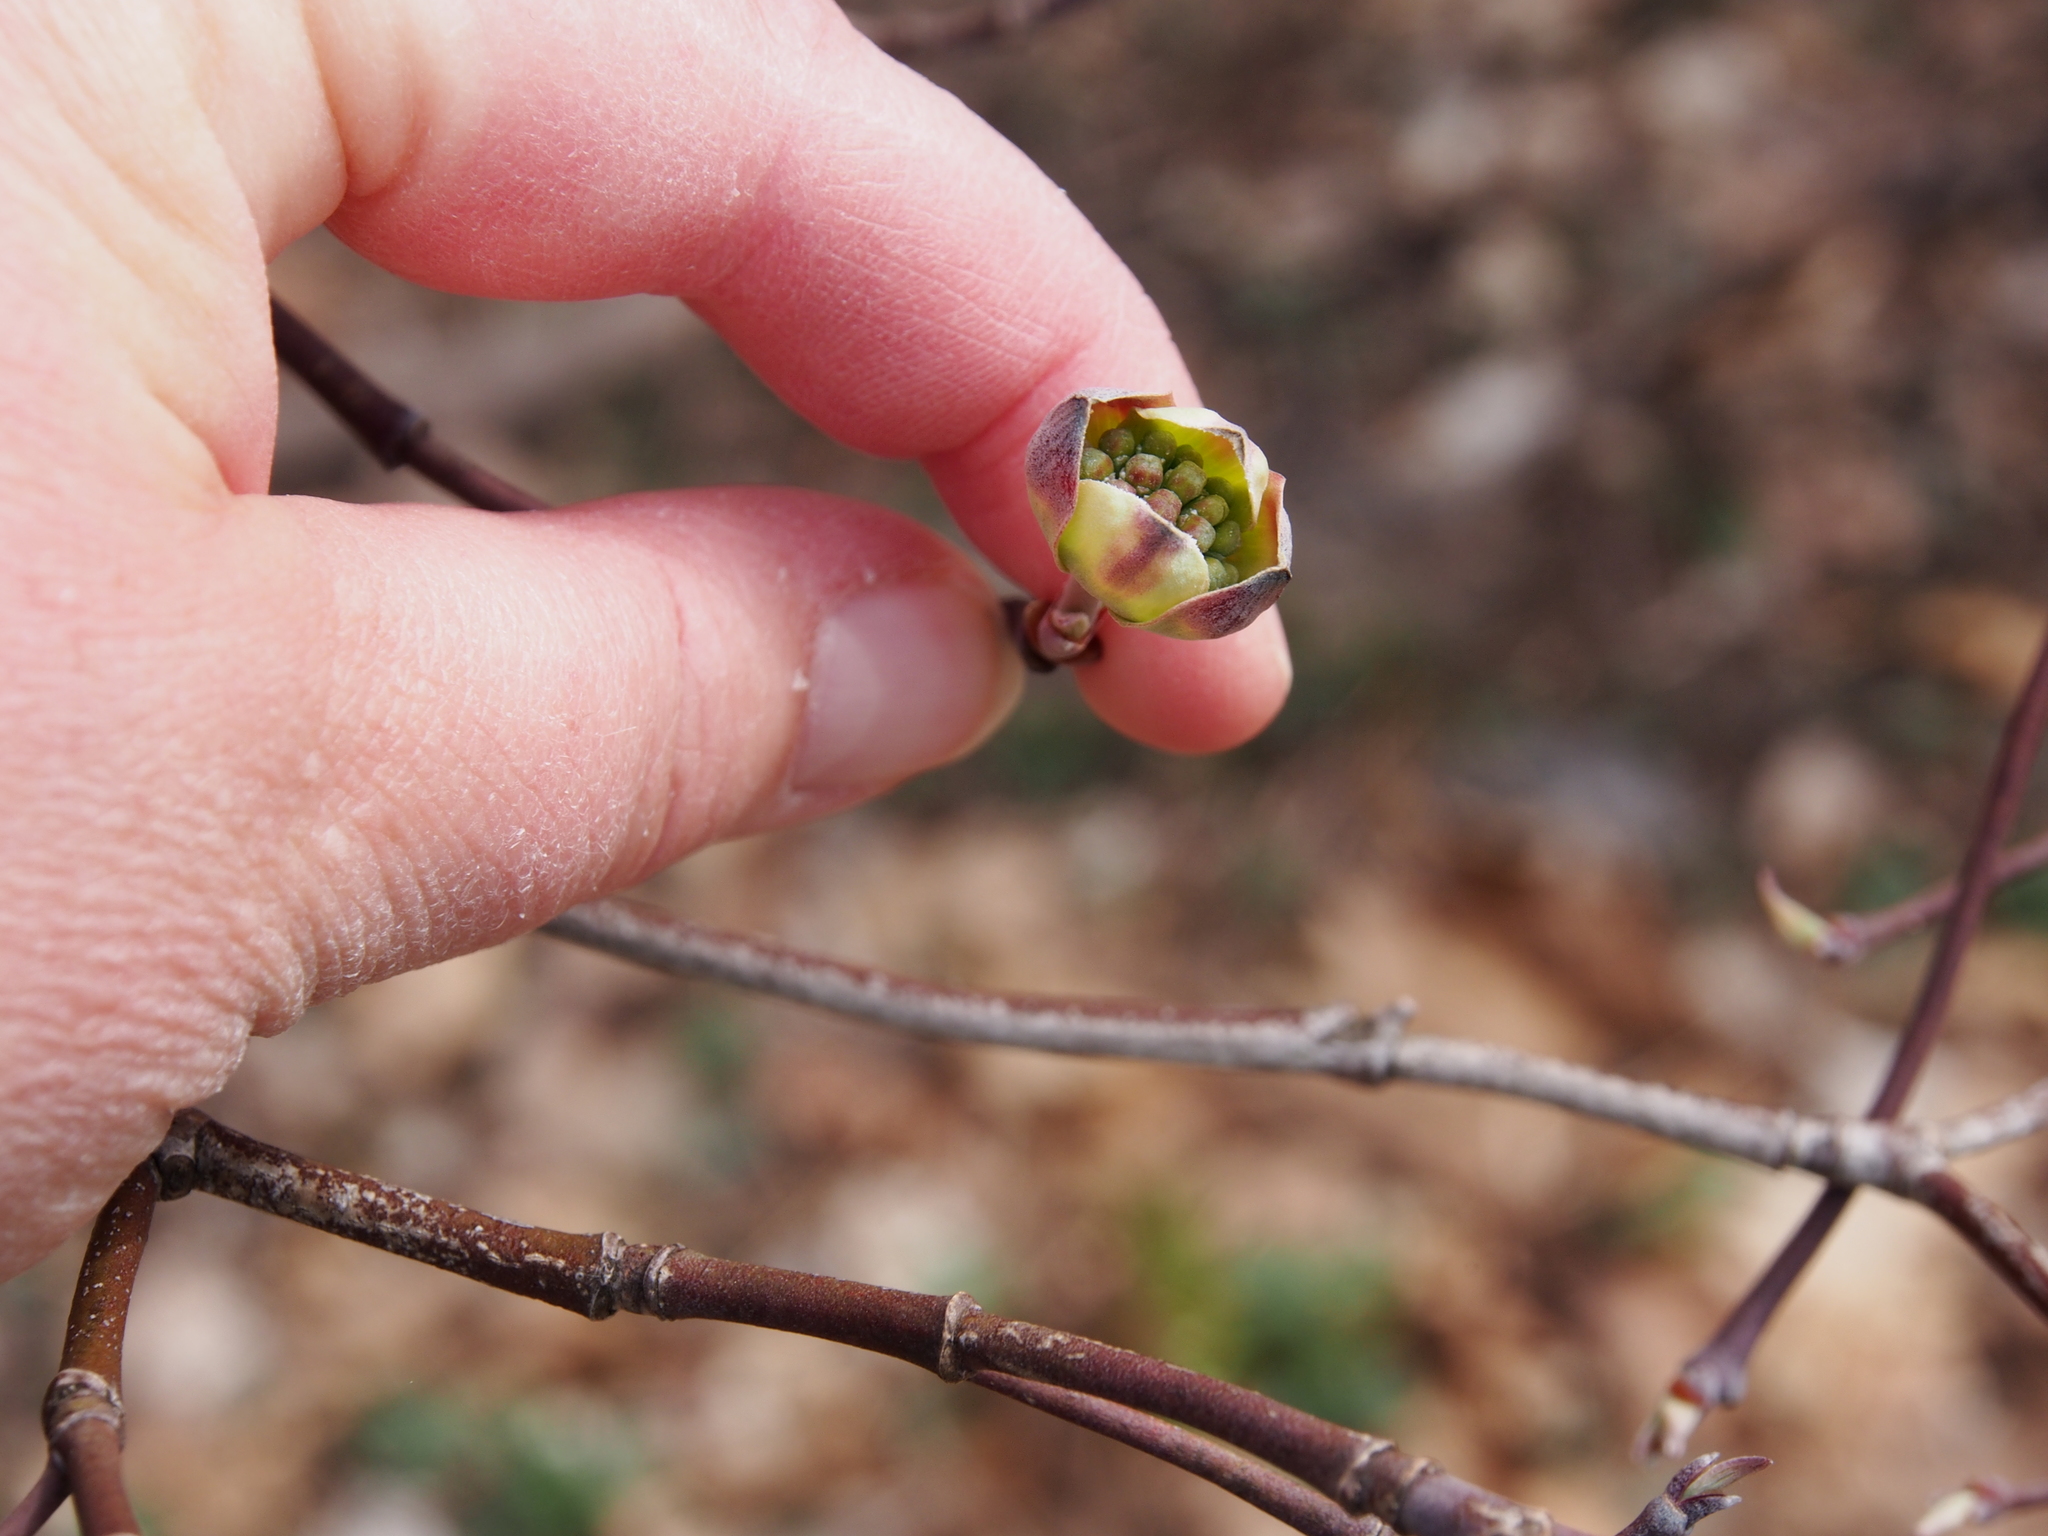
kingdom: Plantae
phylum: Tracheophyta
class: Magnoliopsida
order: Cornales
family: Cornaceae
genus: Cornus
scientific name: Cornus florida
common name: Flowering dogwood
